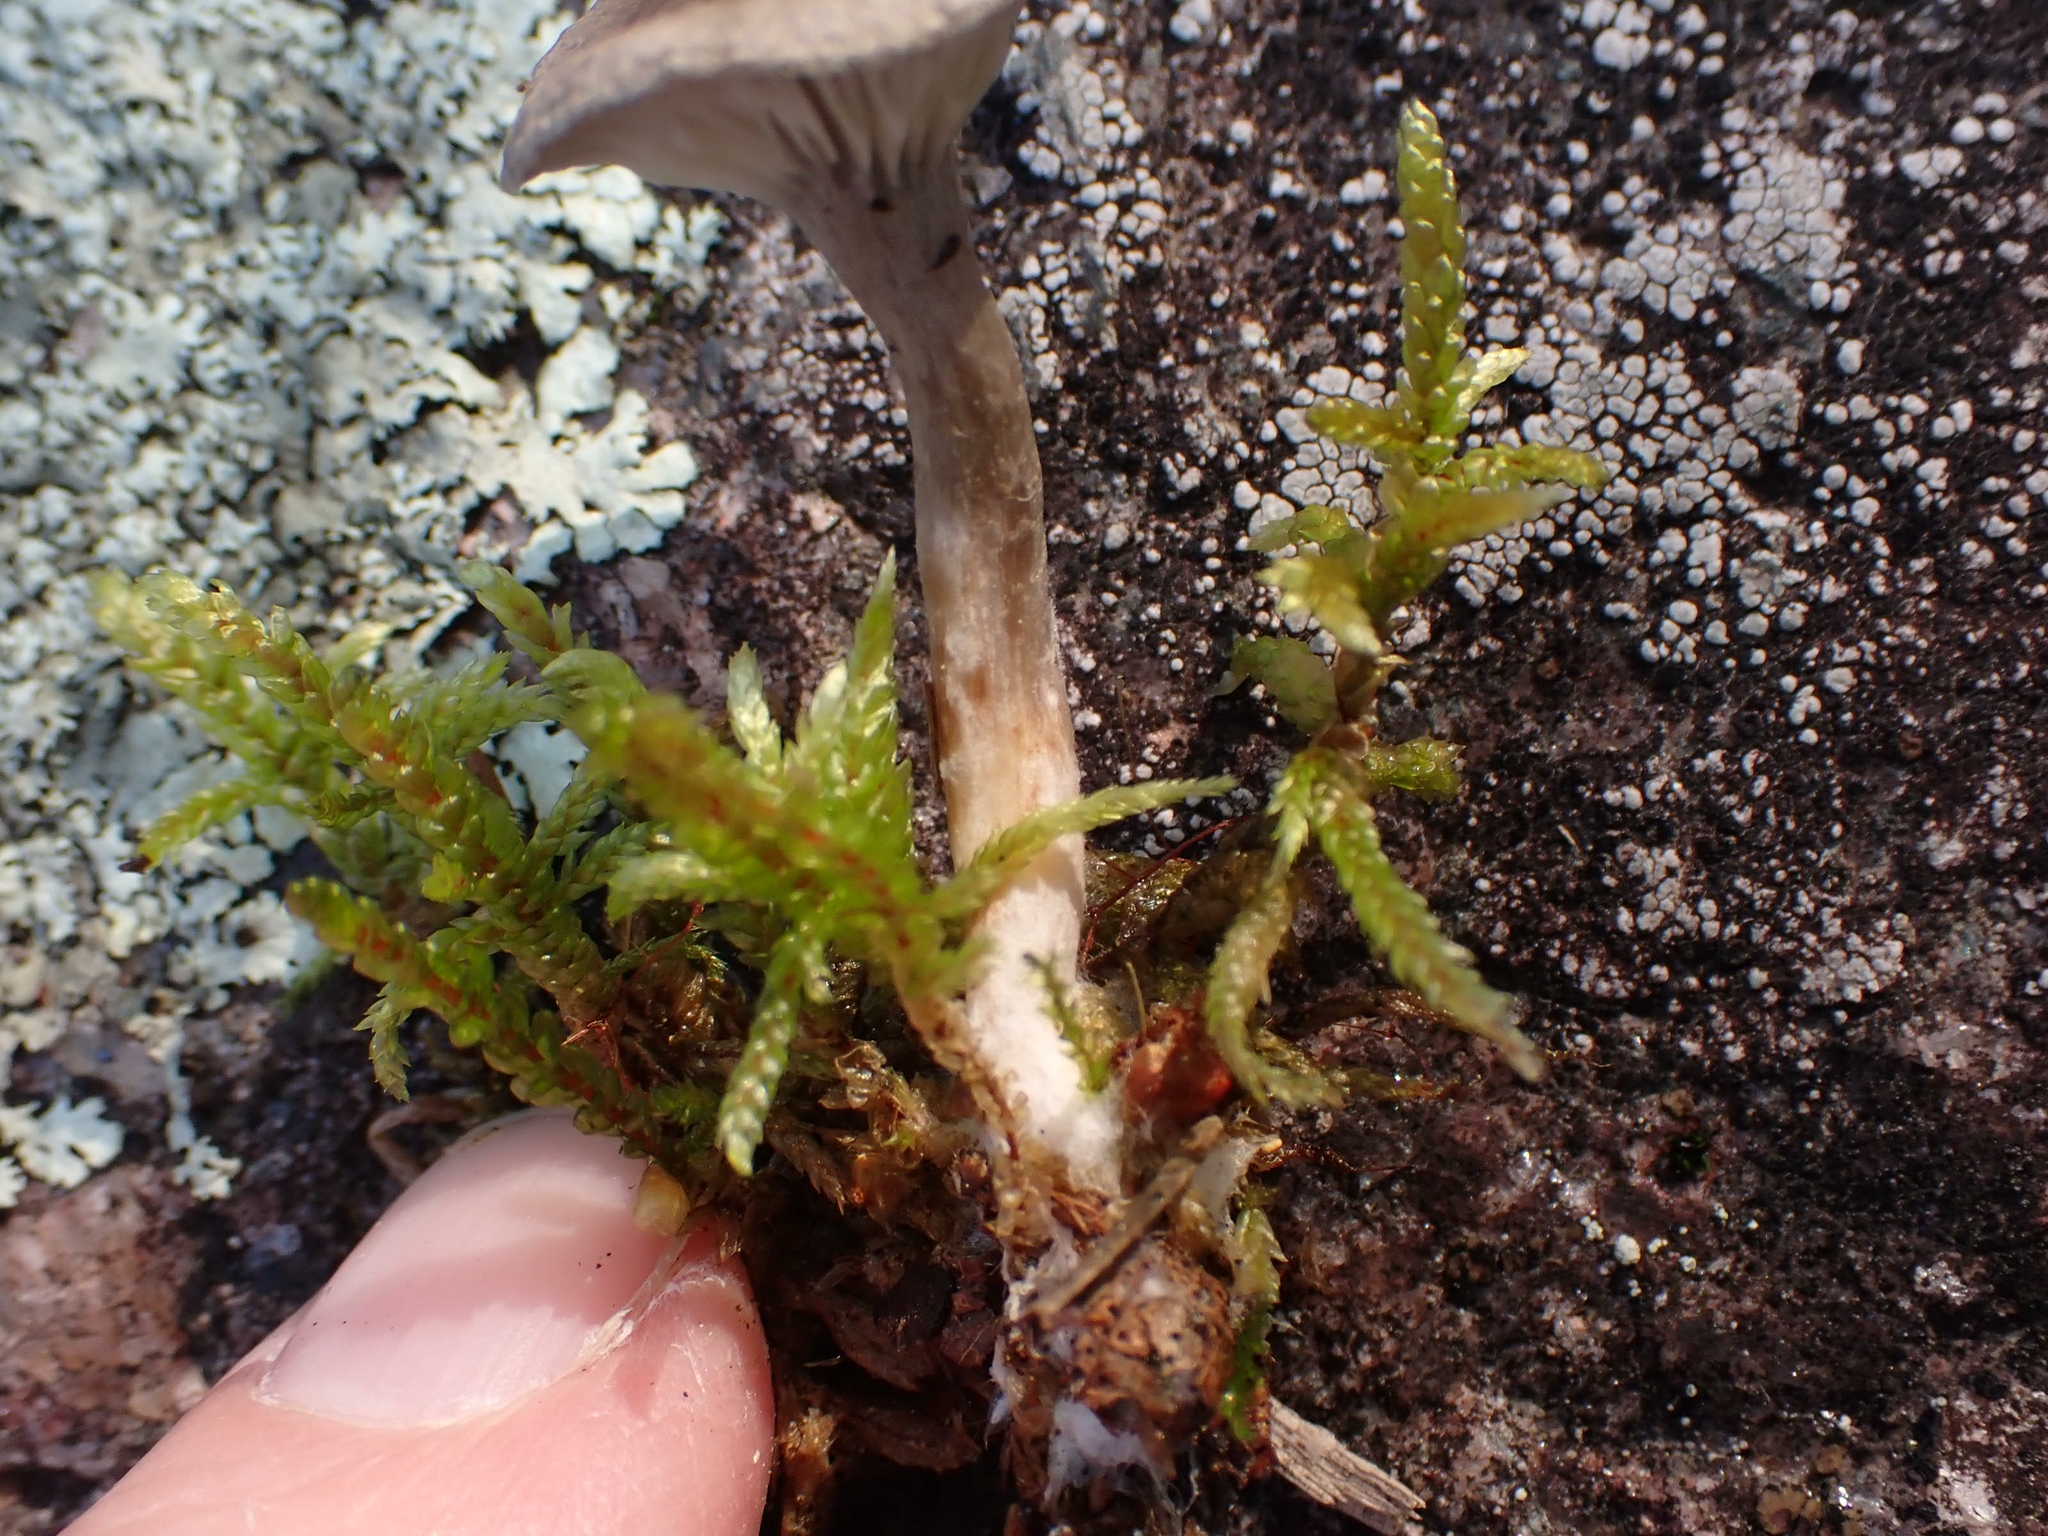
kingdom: Fungi
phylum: Basidiomycota
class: Agaricomycetes
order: Agaricales
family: Hygrophoraceae
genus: Cantharellula
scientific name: Cantharellula umbonata
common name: The humpback
